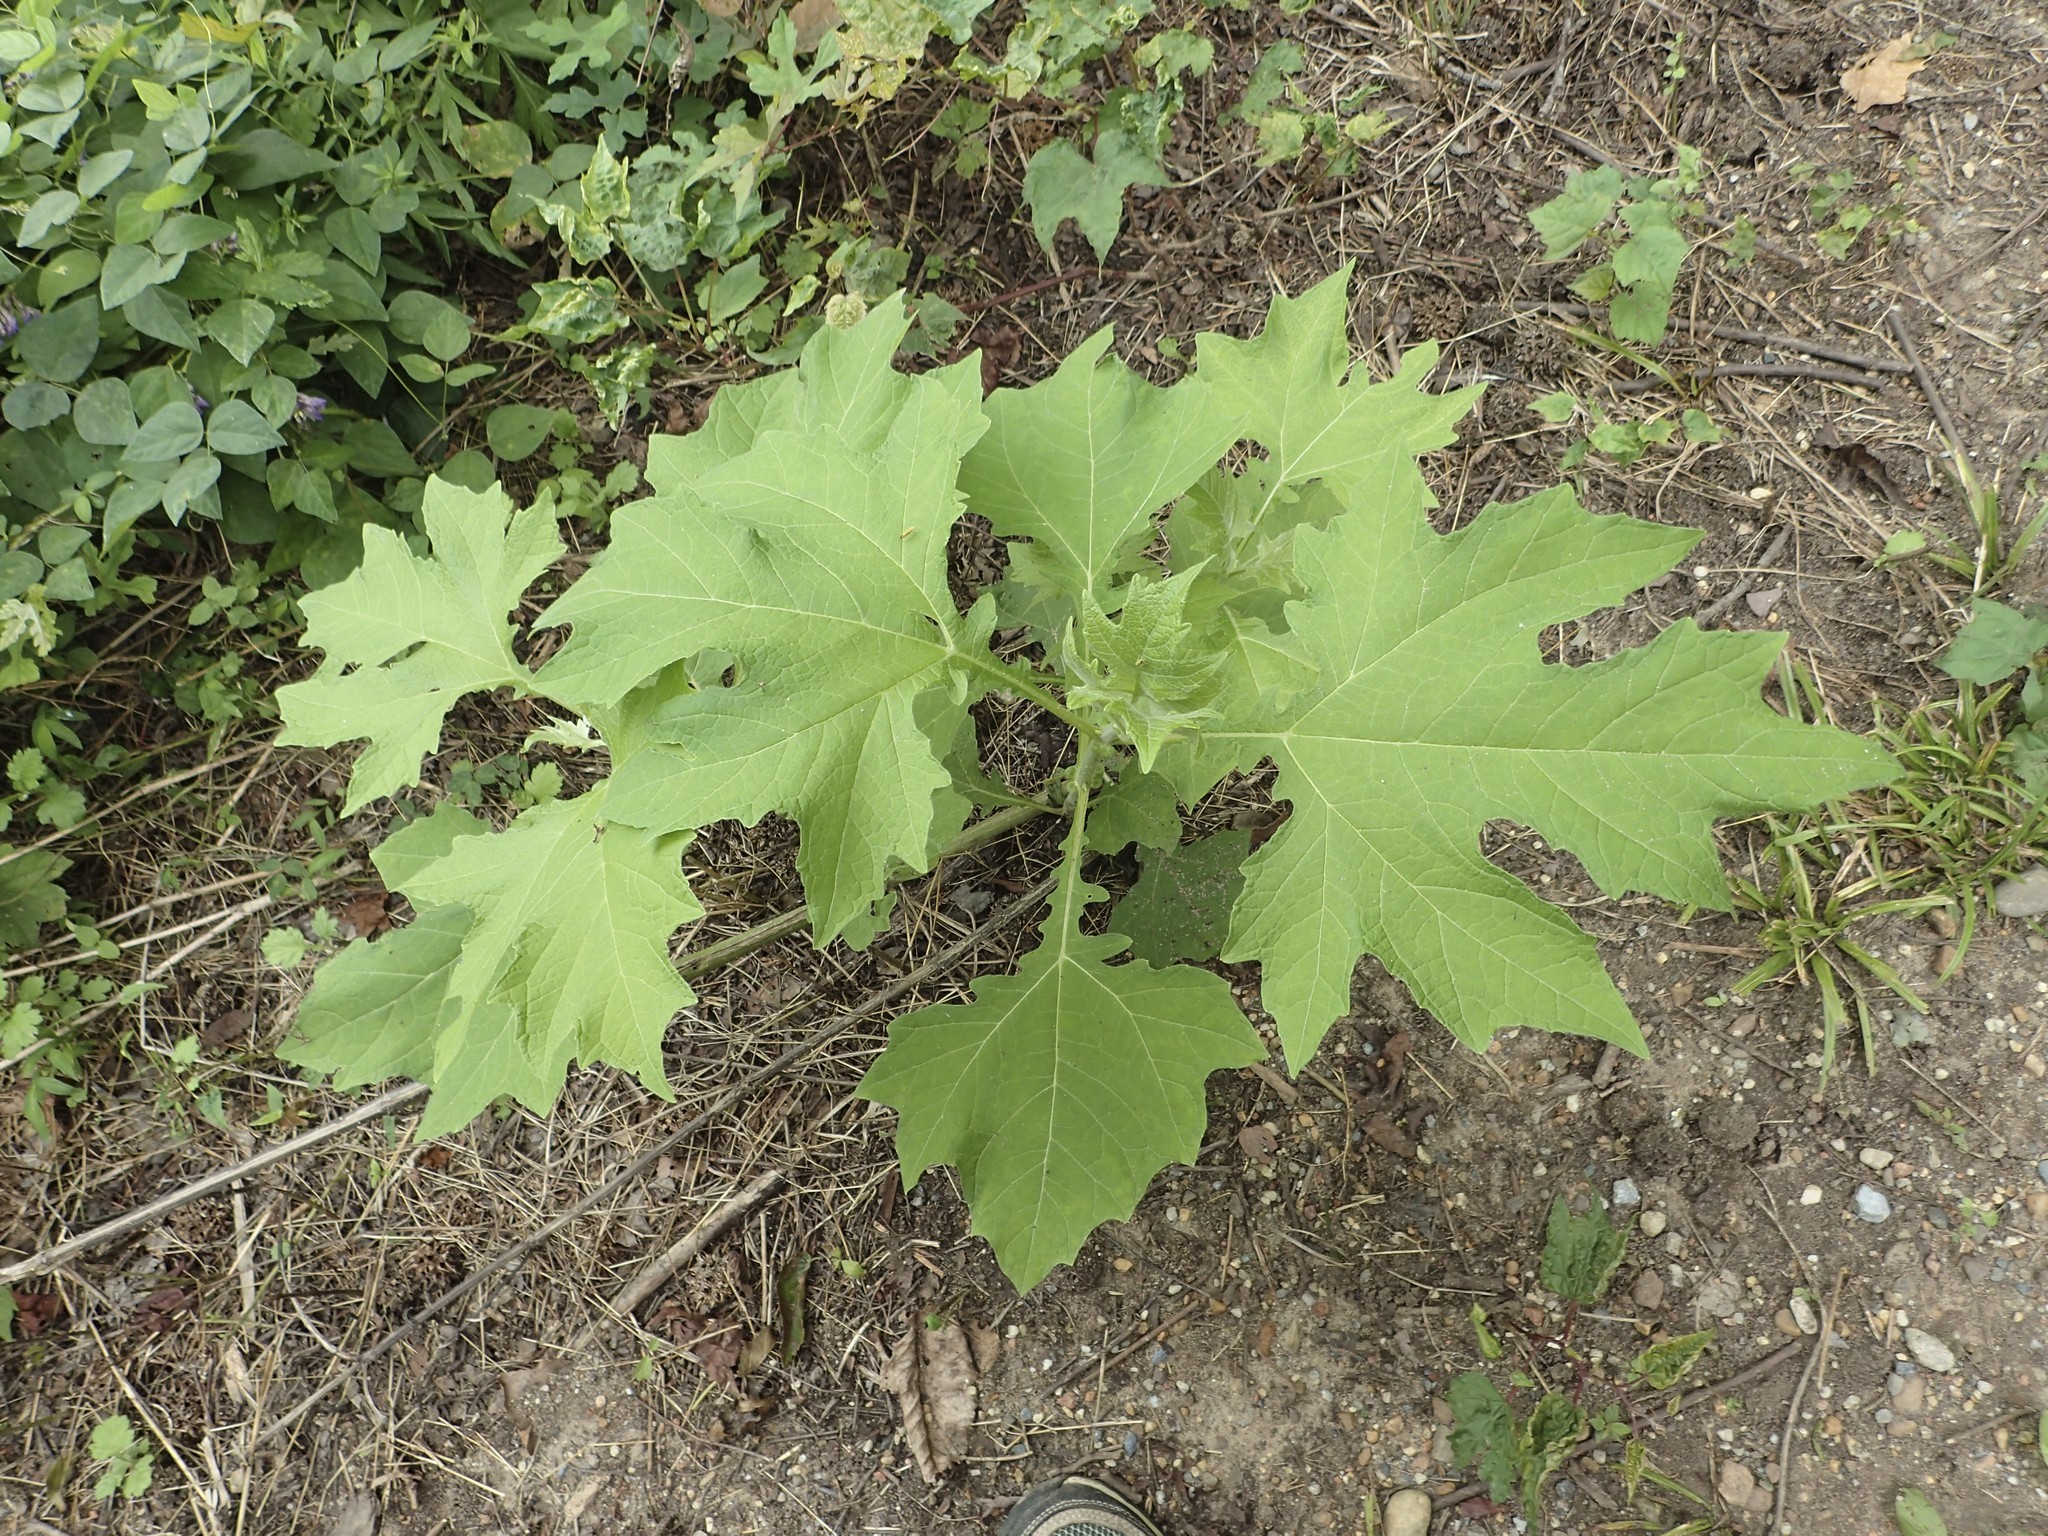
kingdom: Plantae
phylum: Tracheophyta
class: Magnoliopsida
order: Asterales
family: Asteraceae
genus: Smallanthus
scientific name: Smallanthus uvedalia
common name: Bear's-foot
